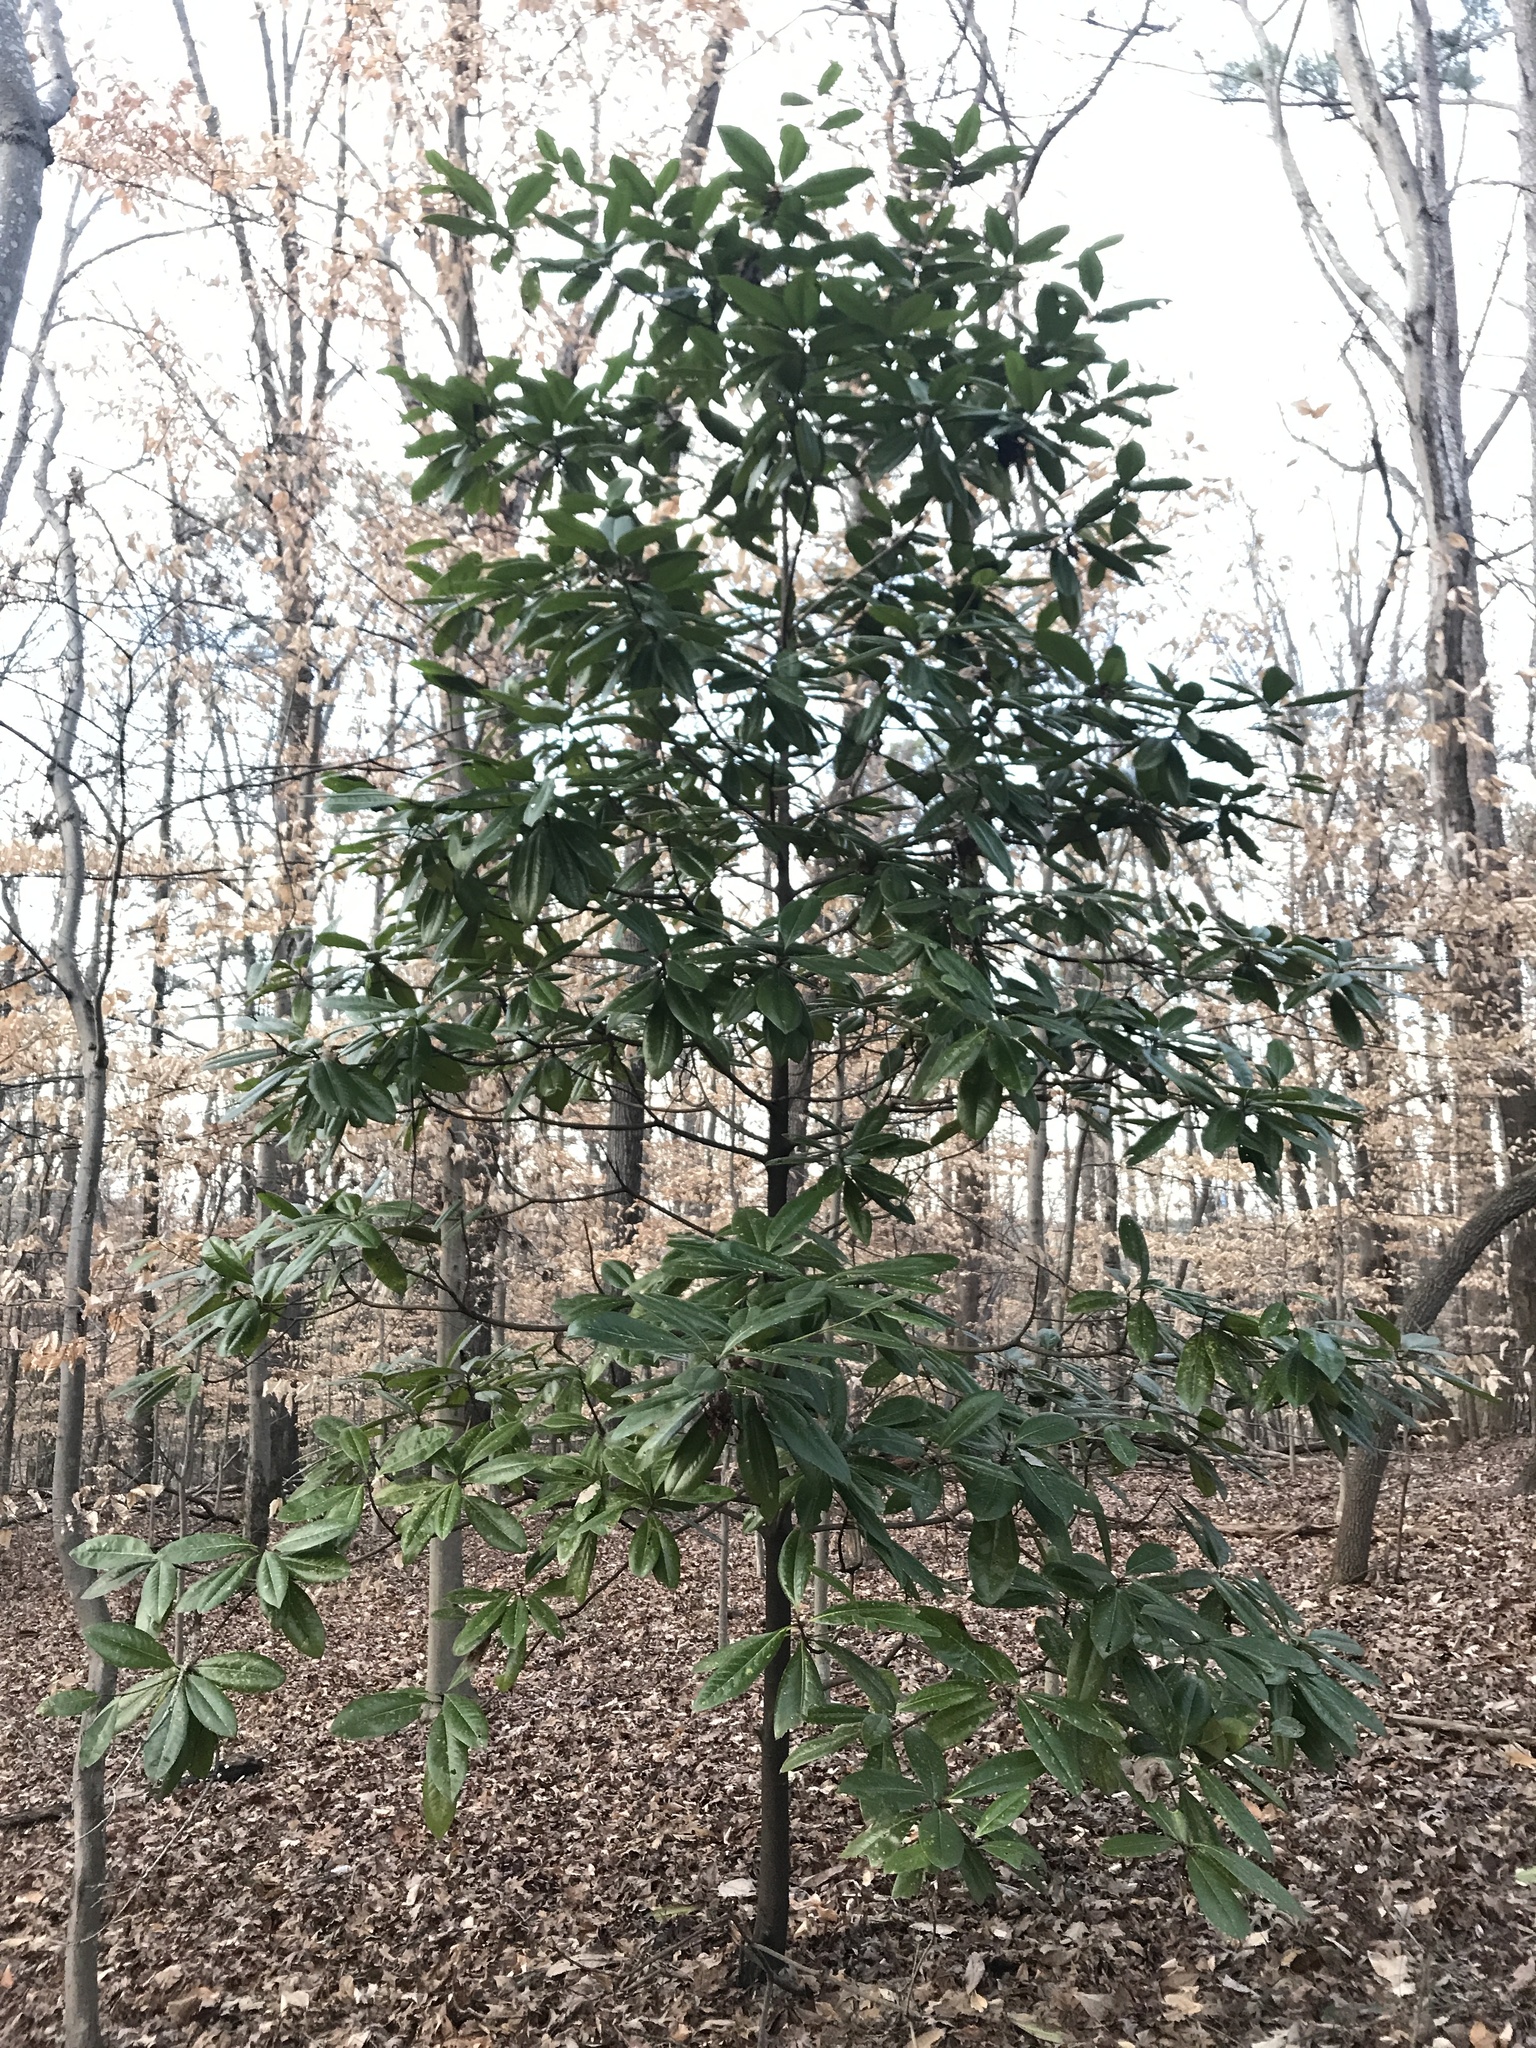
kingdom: Plantae
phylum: Tracheophyta
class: Magnoliopsida
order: Magnoliales
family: Magnoliaceae
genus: Magnolia
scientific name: Magnolia grandiflora
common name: Southern magnolia
